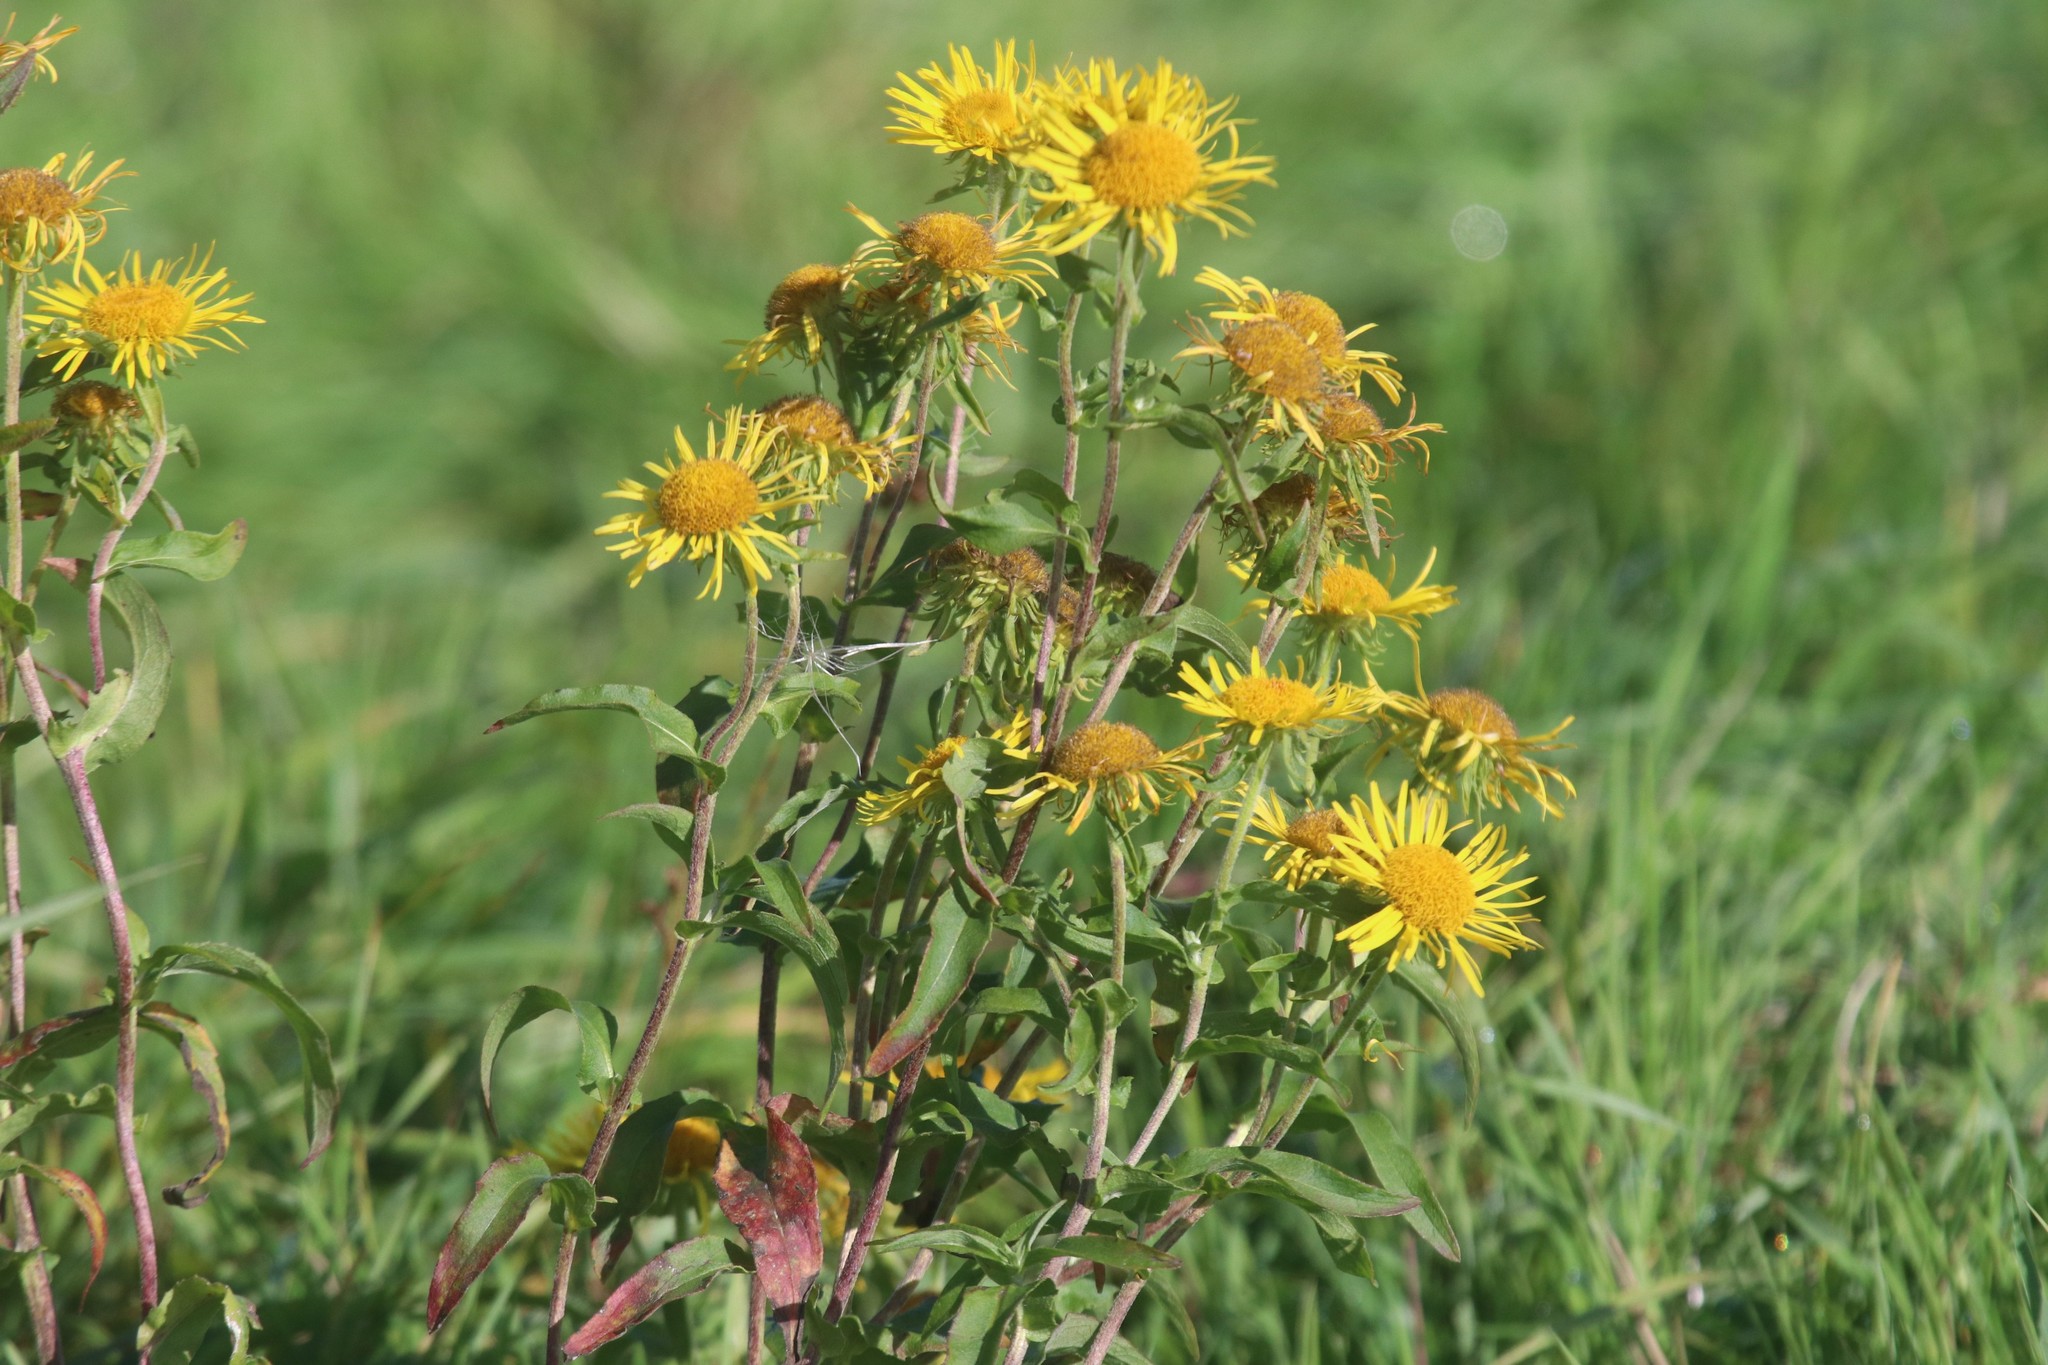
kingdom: Plantae
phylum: Tracheophyta
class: Magnoliopsida
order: Asterales
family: Asteraceae
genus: Pentanema
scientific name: Pentanema britannicum
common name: British elecampane
